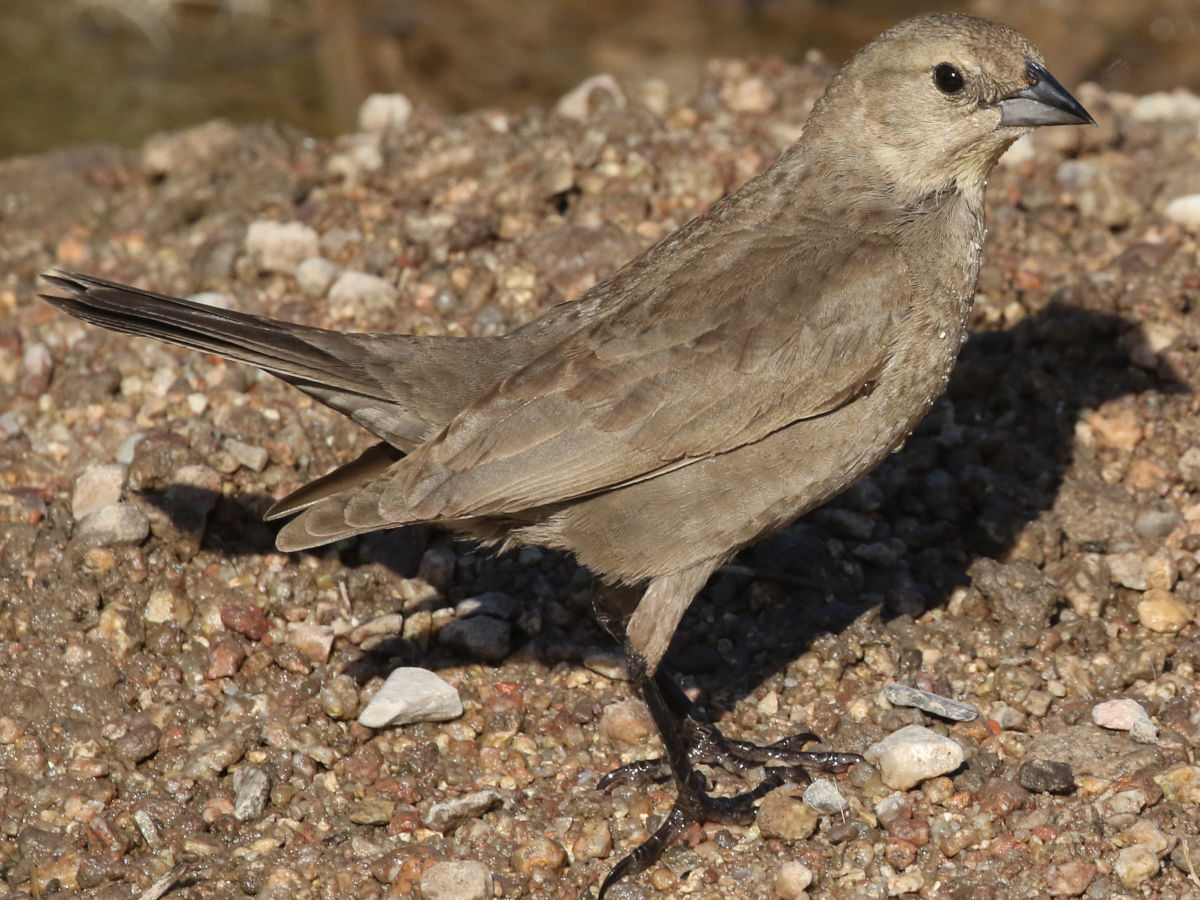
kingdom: Animalia
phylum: Chordata
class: Aves
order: Passeriformes
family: Icteridae
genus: Molothrus
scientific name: Molothrus ater
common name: Brown-headed cowbird
